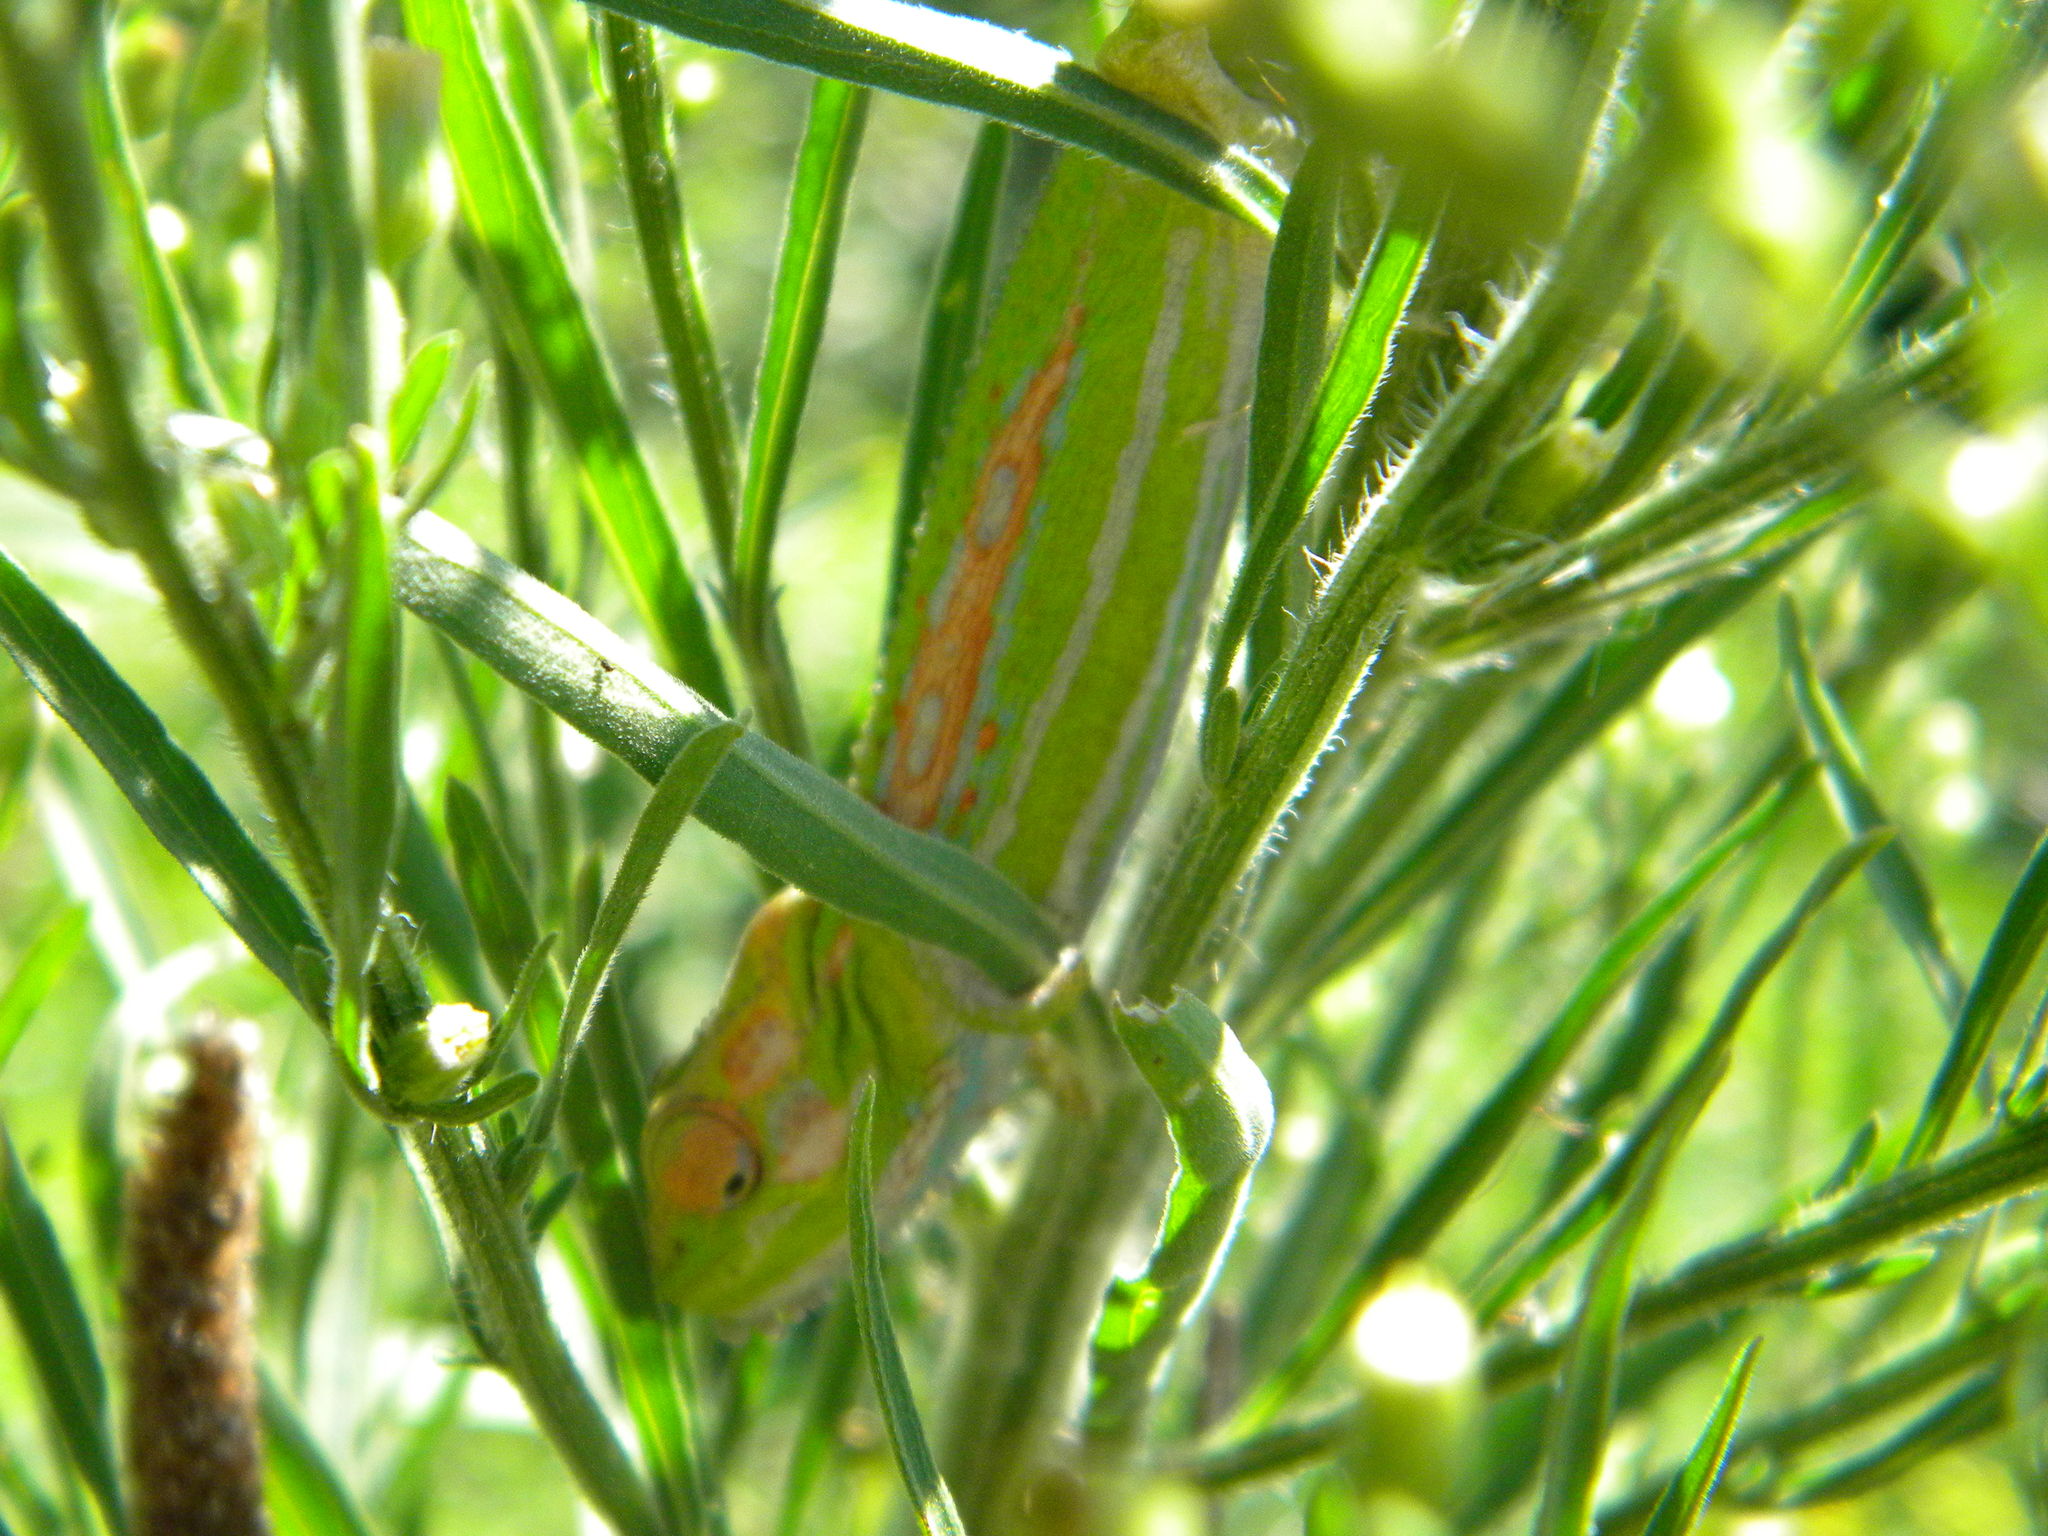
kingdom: Animalia
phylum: Chordata
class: Squamata
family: Chamaeleonidae
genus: Bradypodion
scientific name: Bradypodion pumilum
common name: Cape dwarf chameleon
